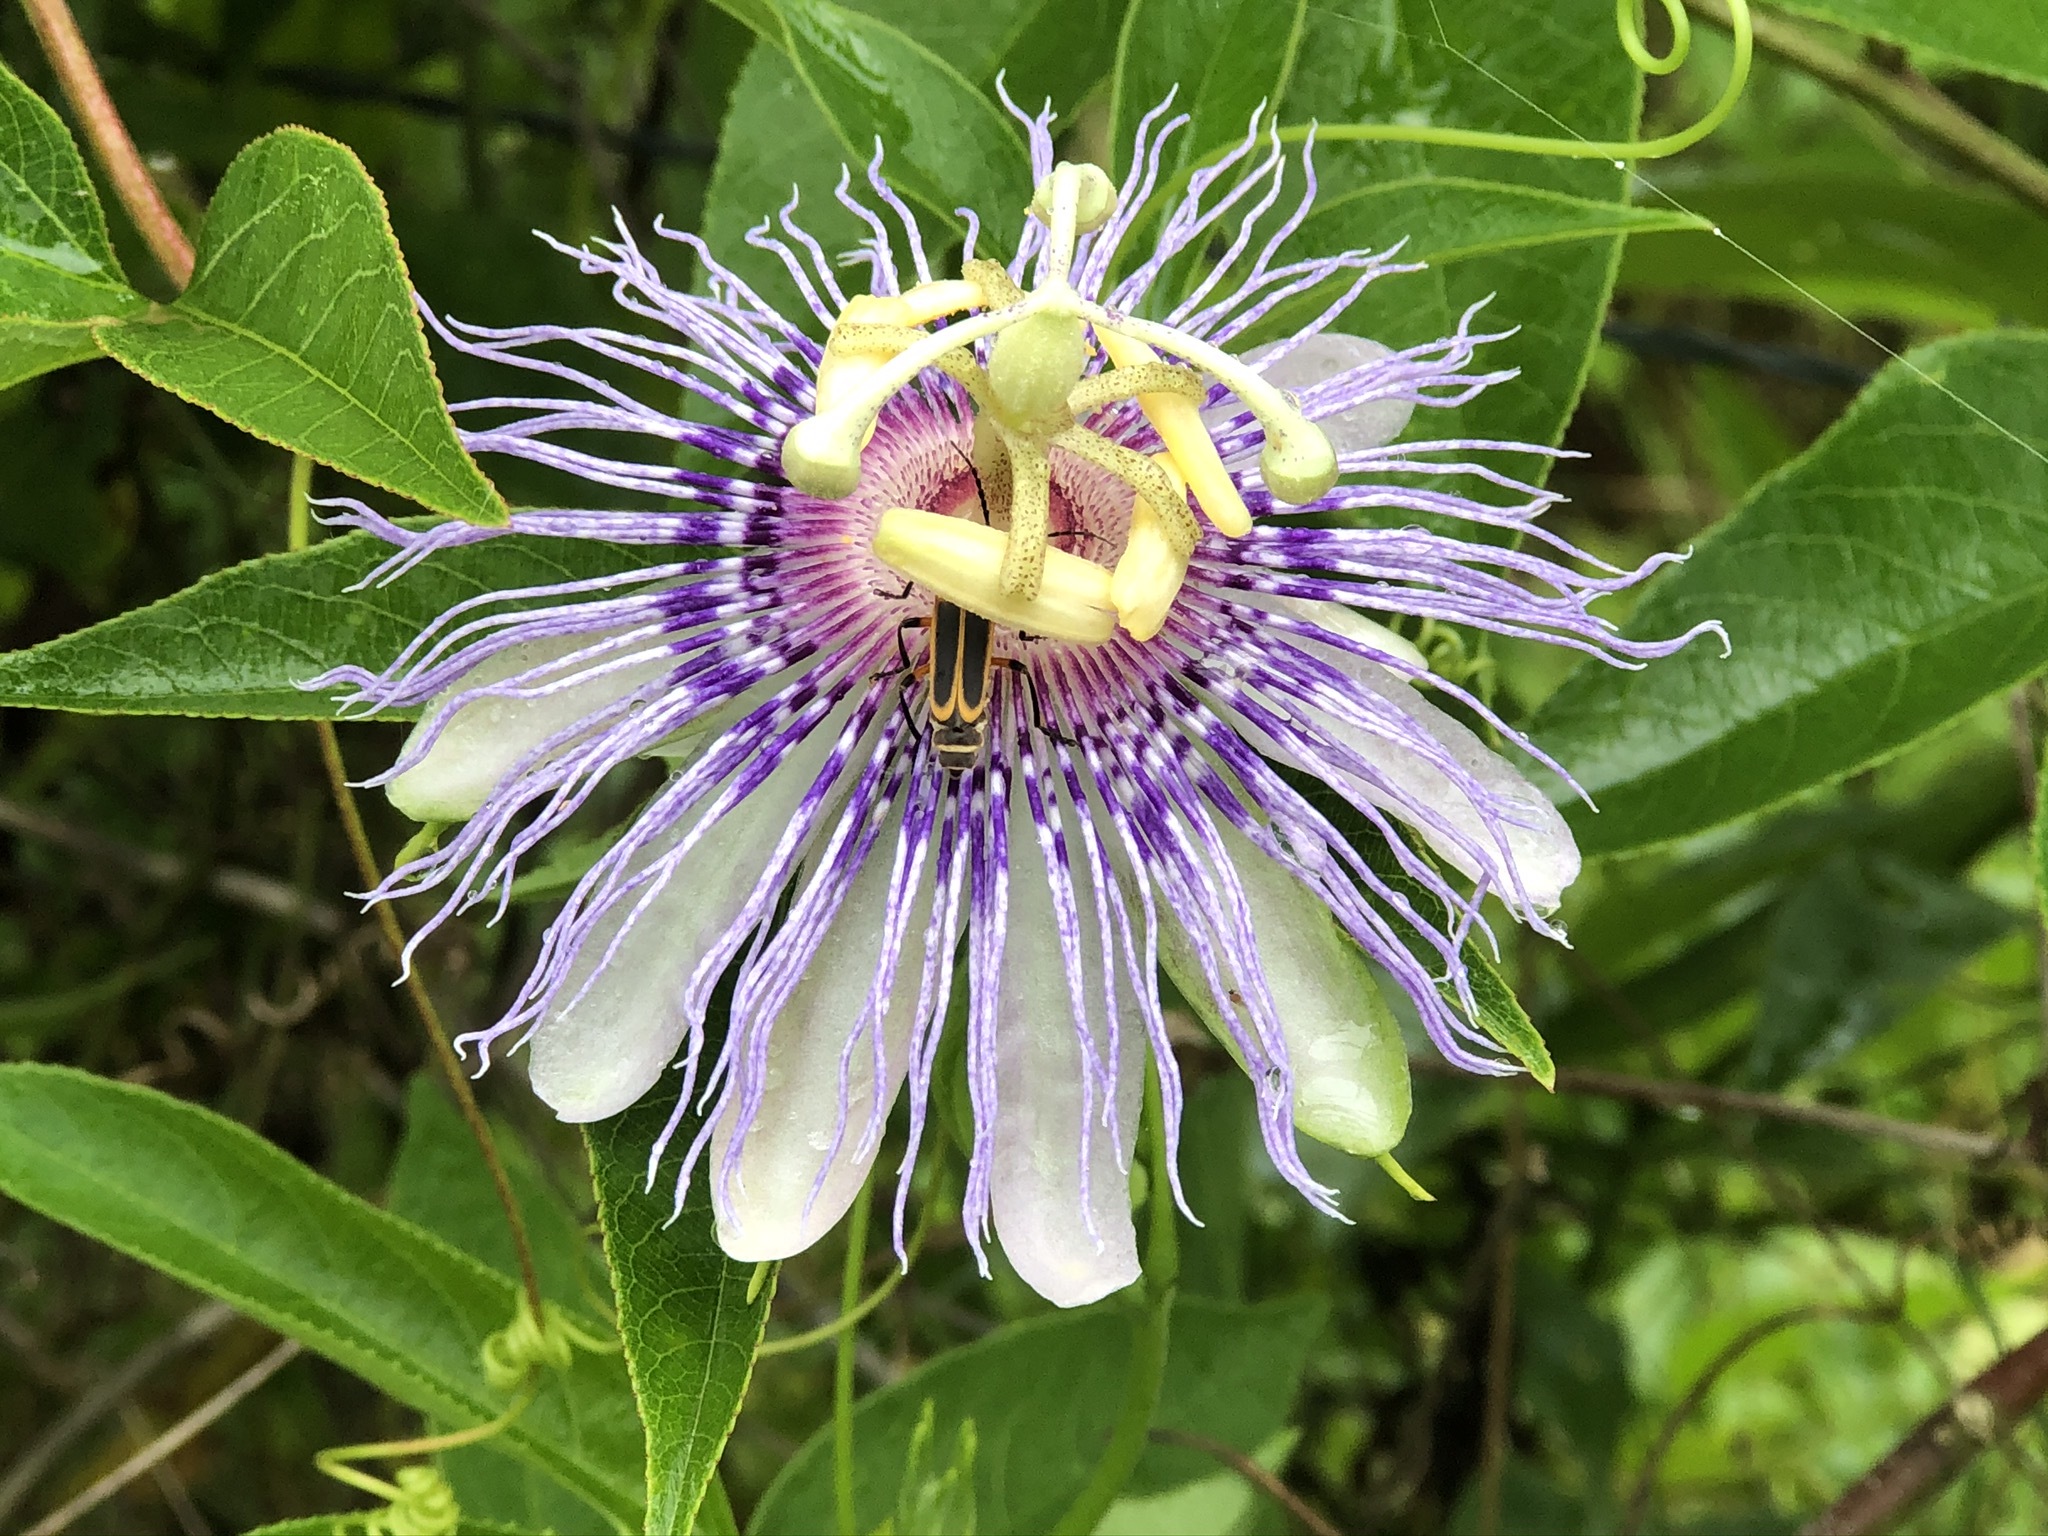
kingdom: Animalia
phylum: Arthropoda
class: Insecta
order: Coleoptera
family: Cantharidae
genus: Chauliognathus
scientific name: Chauliognathus marginatus
